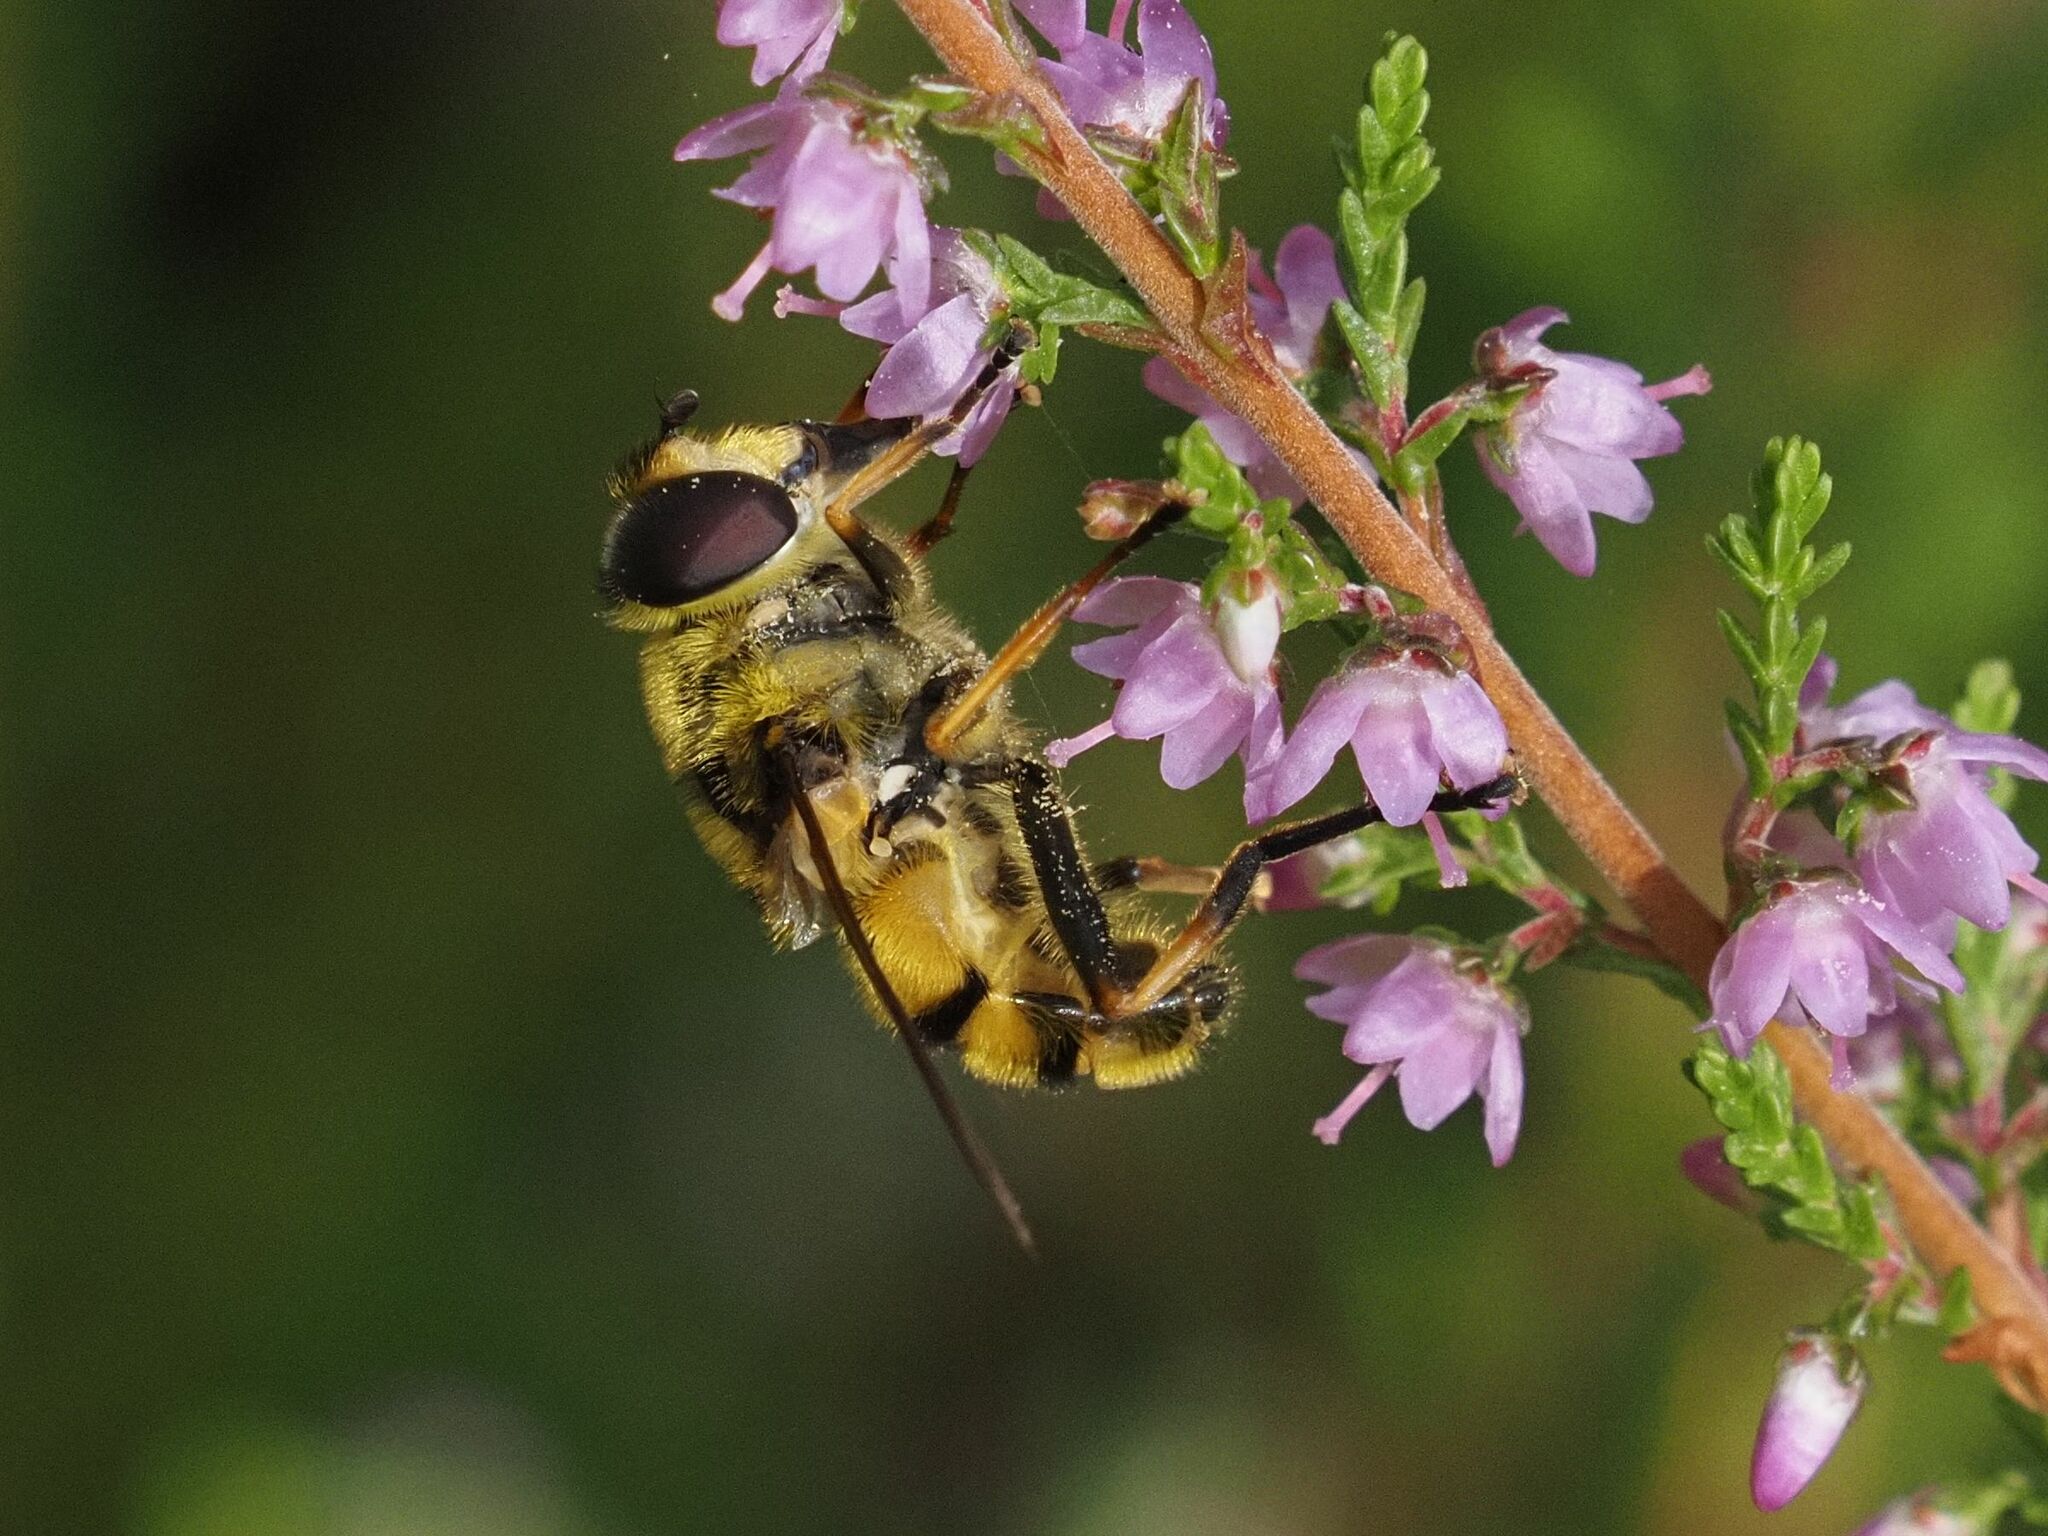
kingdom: Animalia
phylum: Arthropoda
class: Insecta
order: Diptera
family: Syrphidae
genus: Myathropa
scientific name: Myathropa florea
